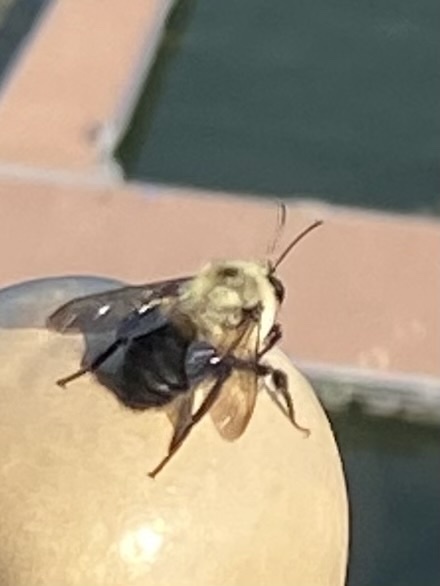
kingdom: Animalia
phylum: Arthropoda
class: Insecta
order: Hymenoptera
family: Apidae
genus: Bombus
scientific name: Bombus griseocollis
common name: Brown-belted bumble bee
